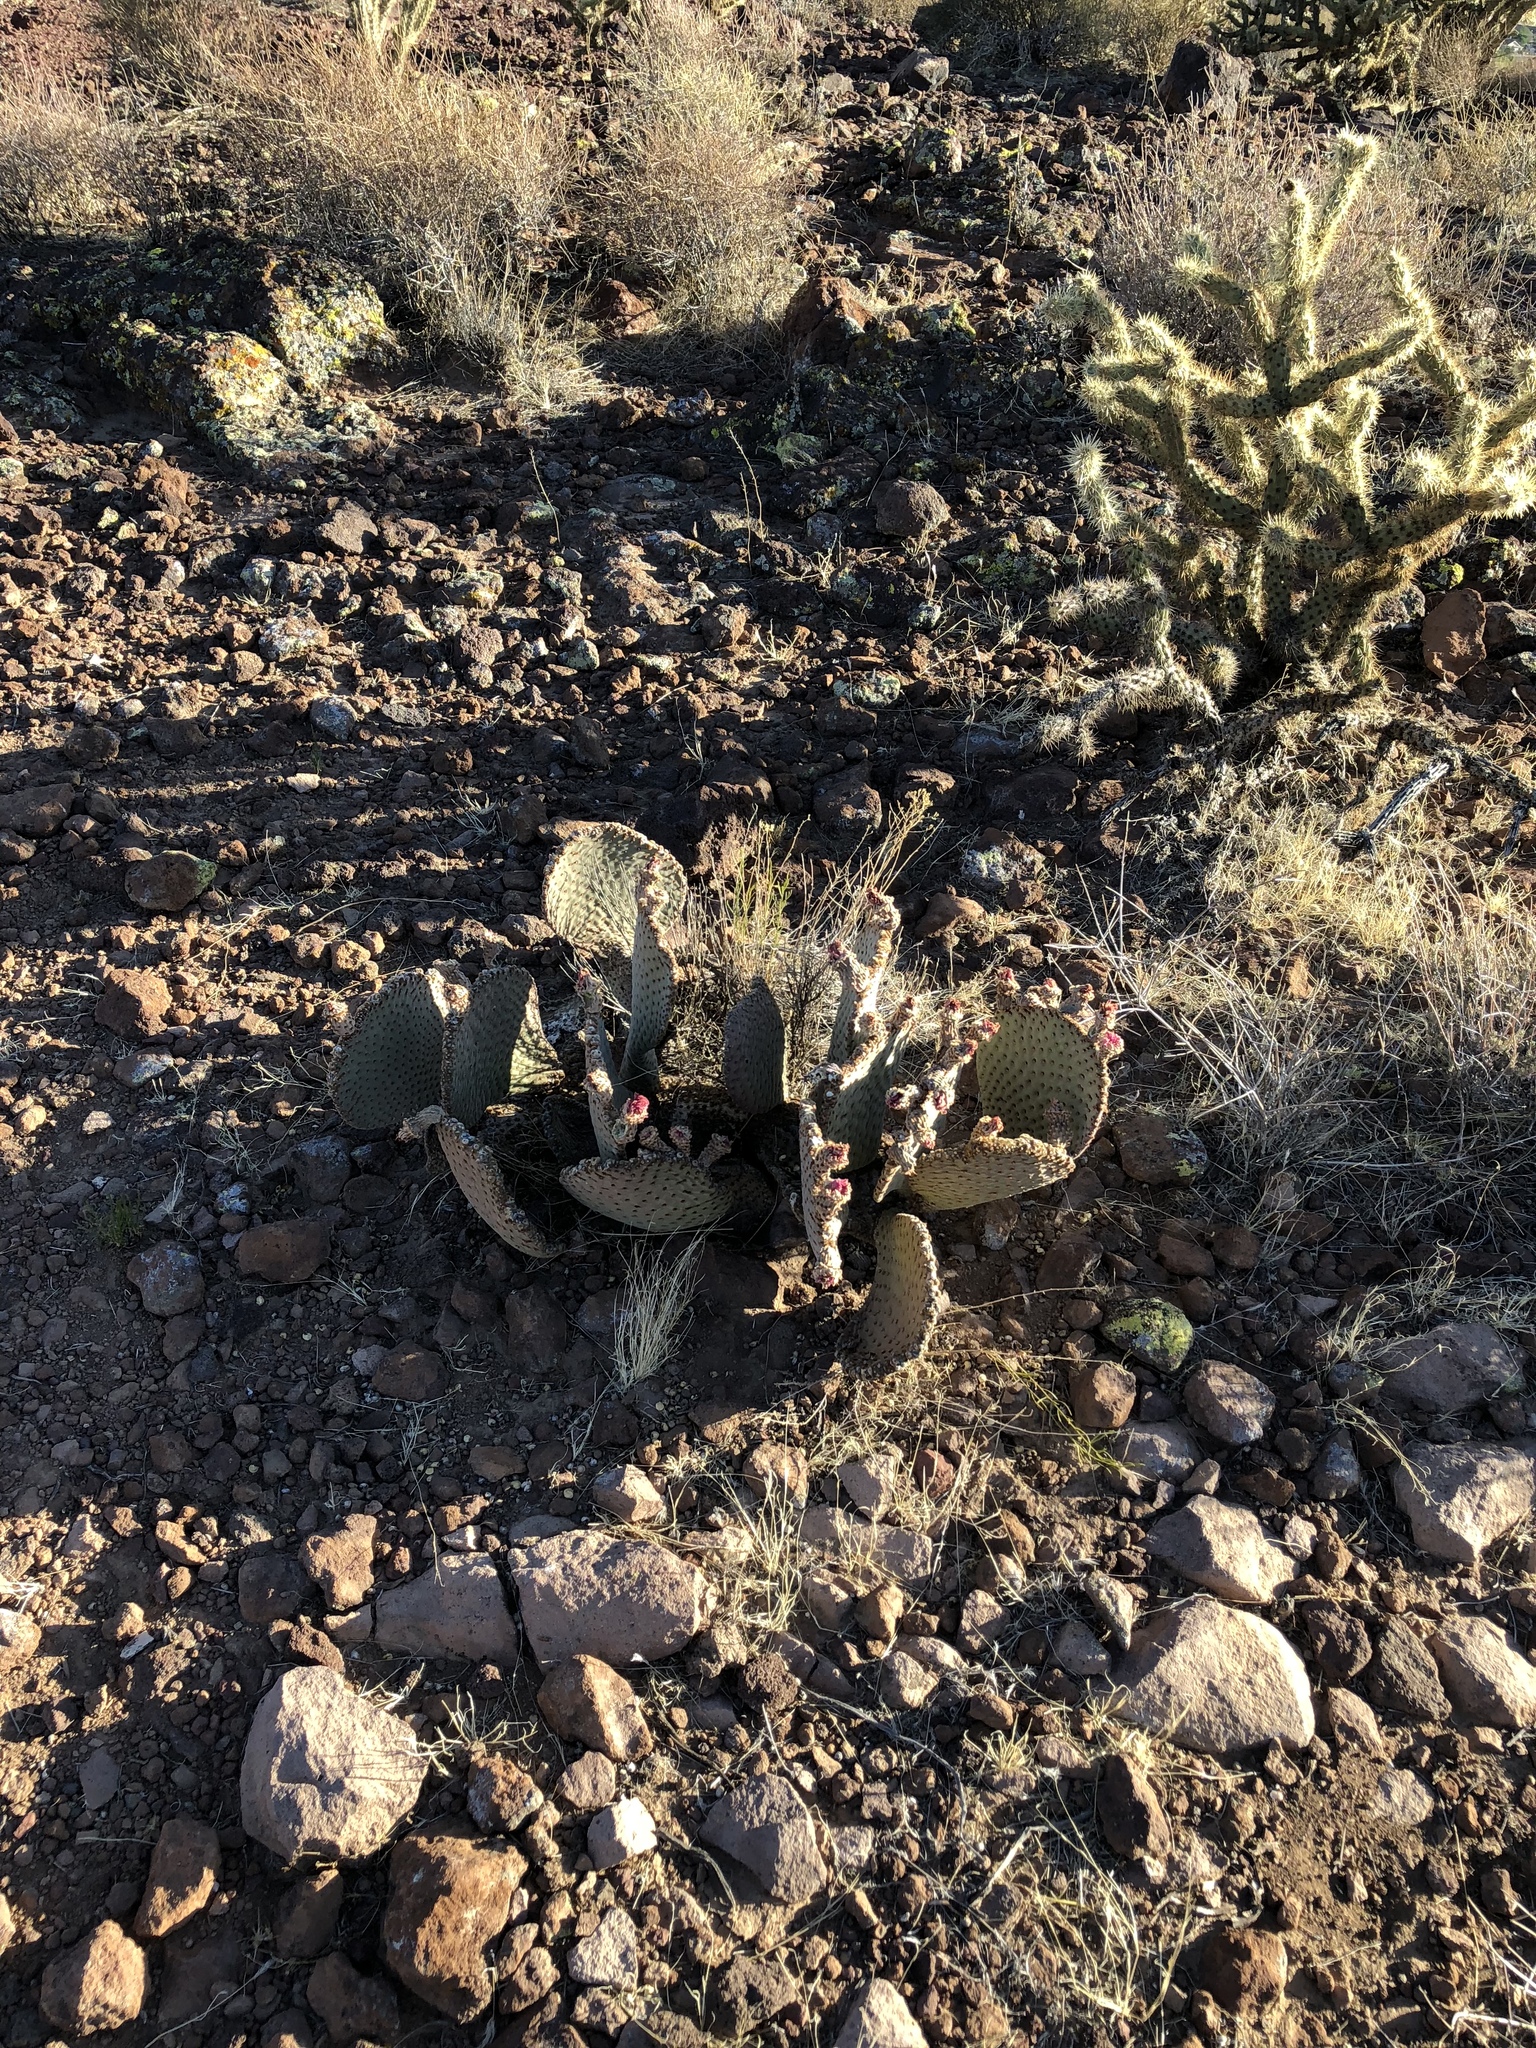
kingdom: Plantae
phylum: Tracheophyta
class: Magnoliopsida
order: Caryophyllales
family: Cactaceae
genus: Opuntia
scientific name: Opuntia basilaris
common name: Beavertail prickly-pear
